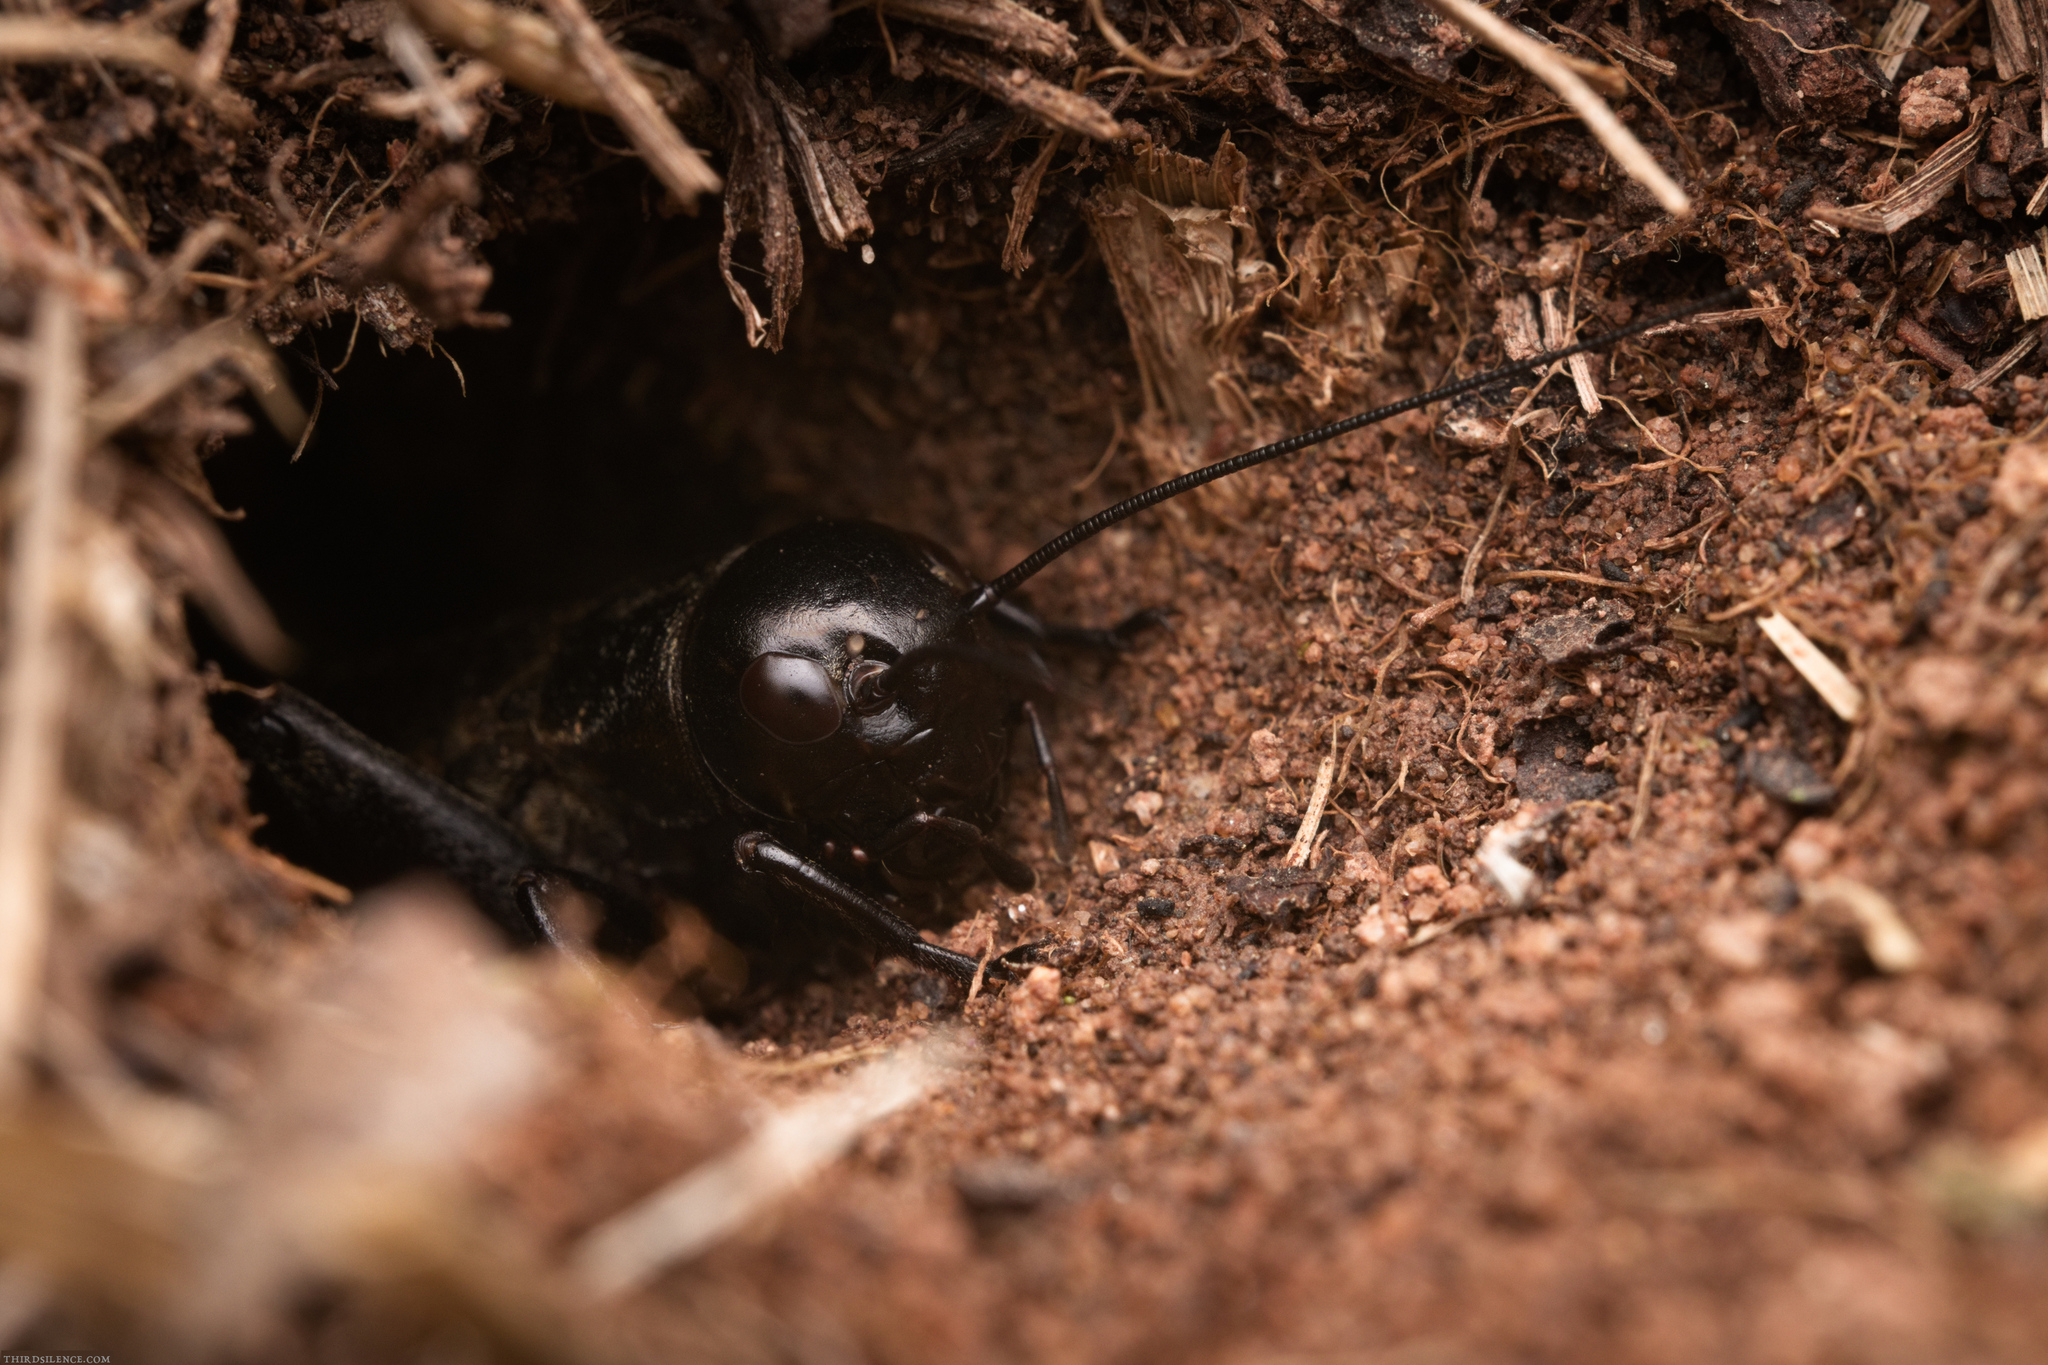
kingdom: Animalia
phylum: Arthropoda
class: Insecta
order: Orthoptera
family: Gryllidae
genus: Gryllus
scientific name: Gryllus campestris
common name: Field cricket
